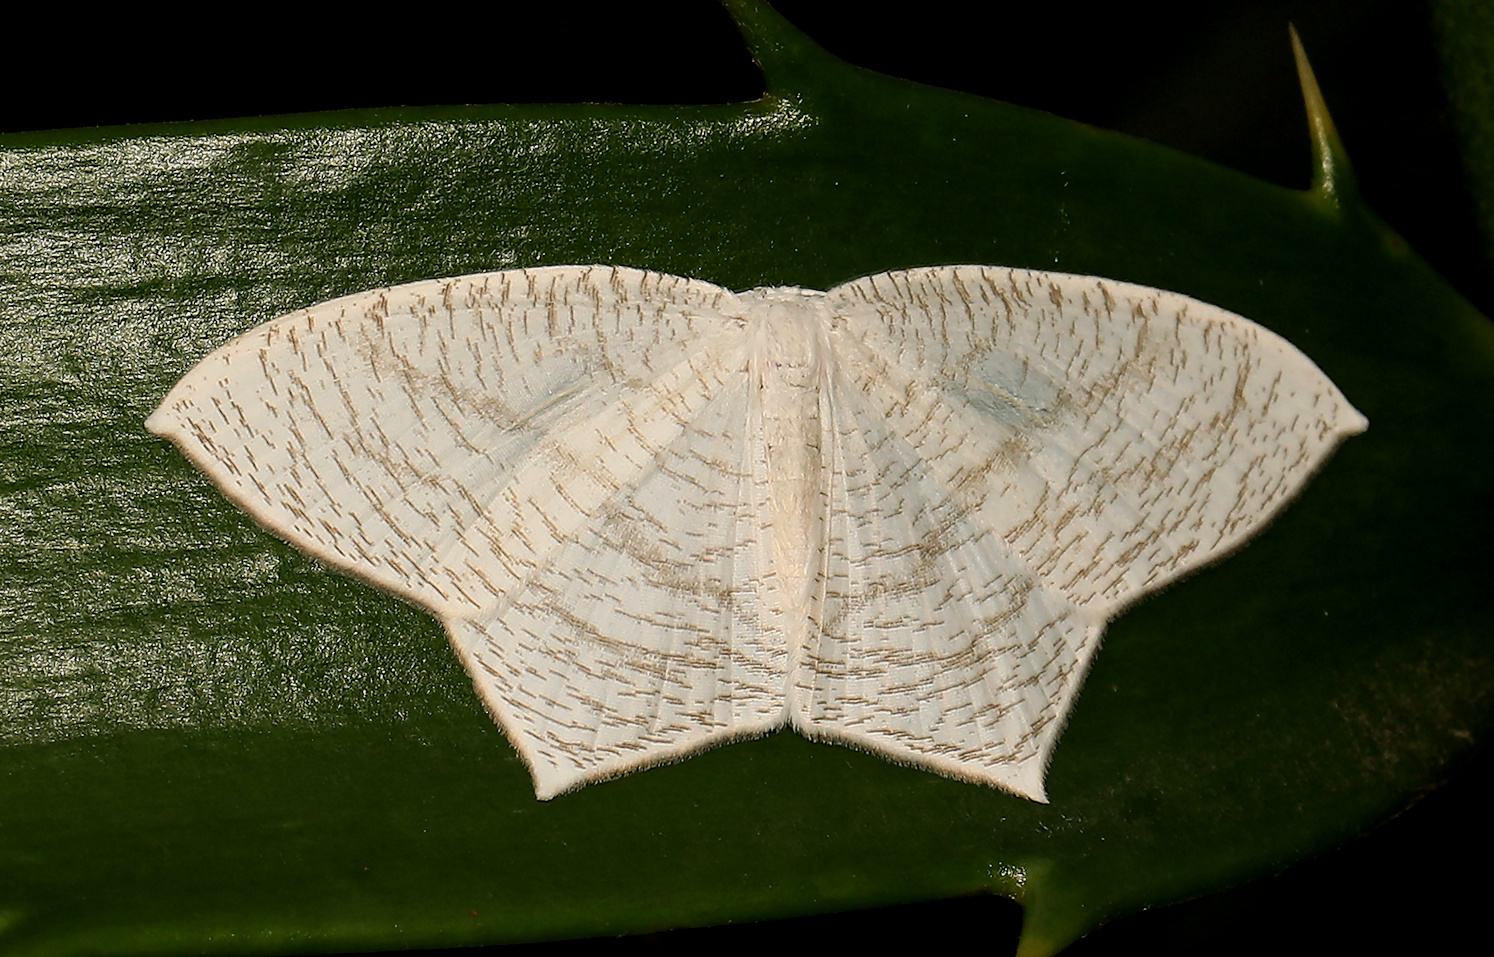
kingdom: Animalia
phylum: Arthropoda
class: Insecta
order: Lepidoptera
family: Uraniidae
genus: Acropteris
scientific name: Acropteris illiturata
